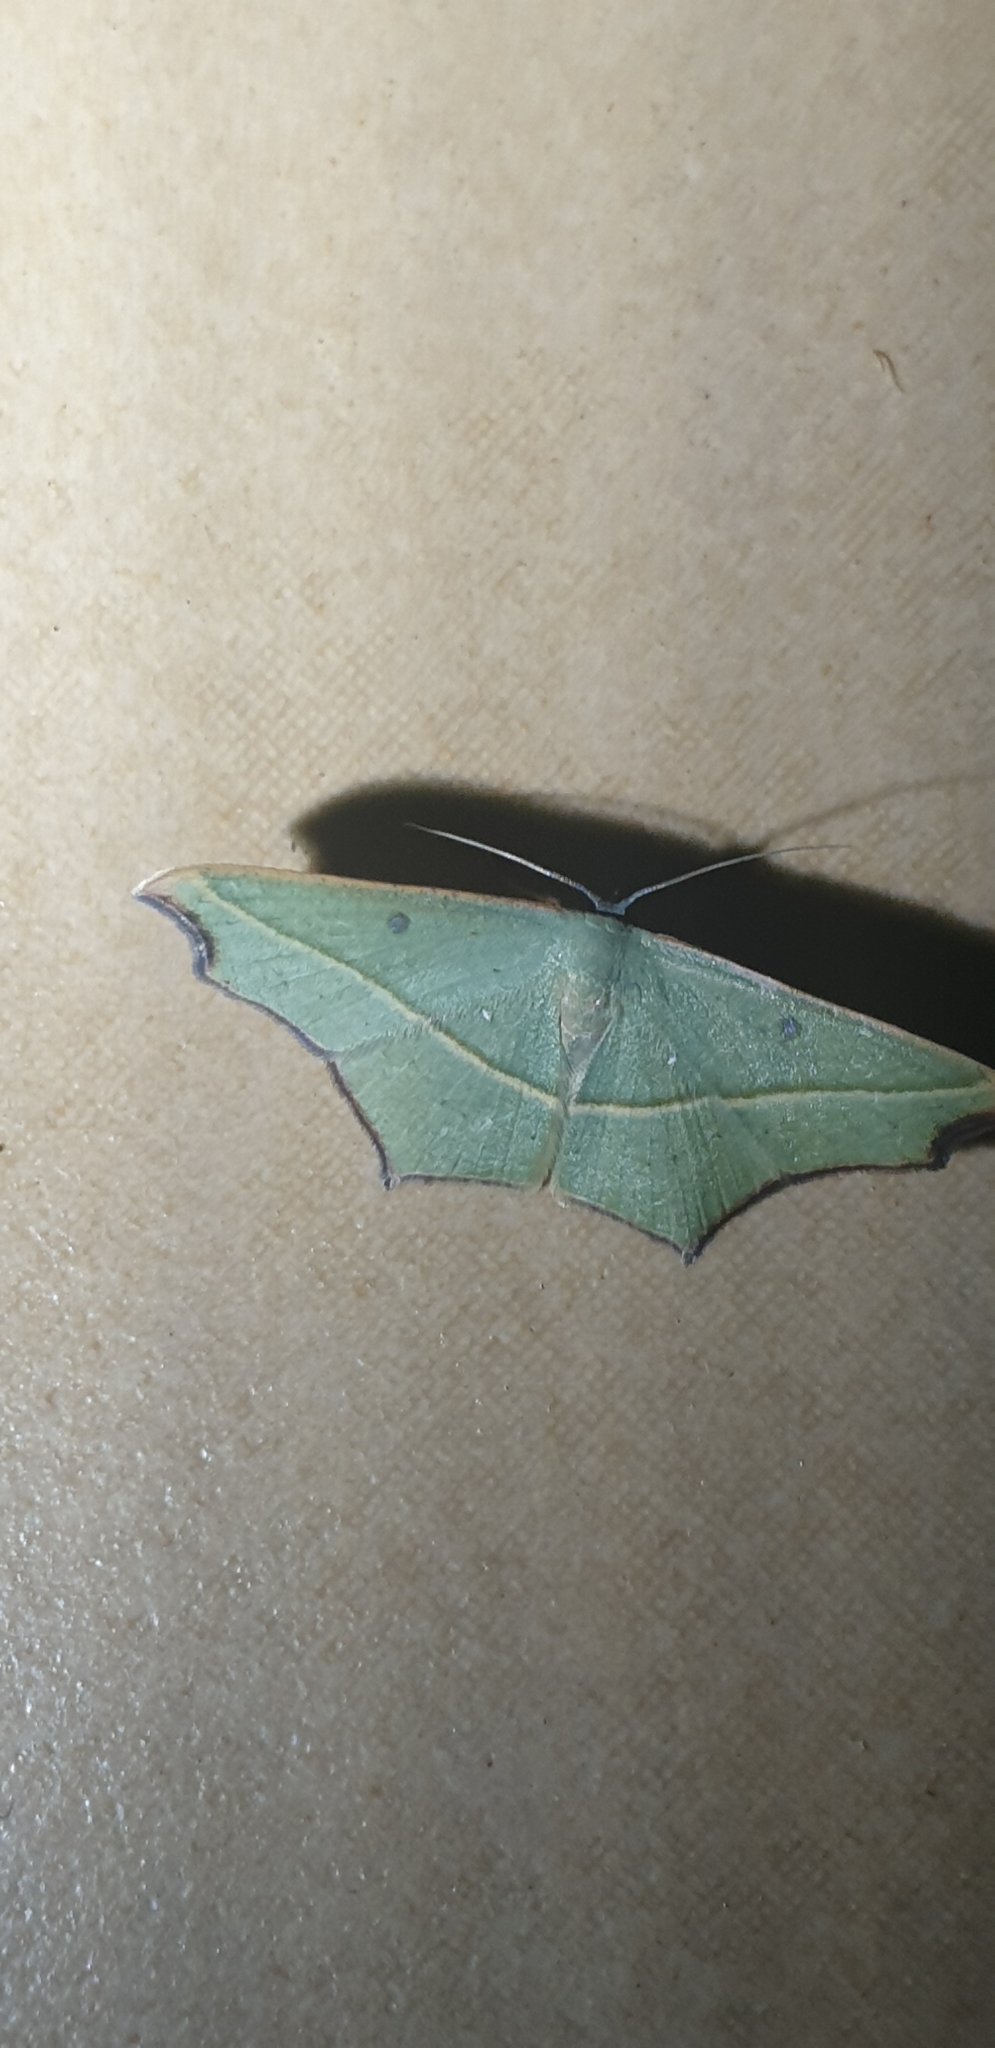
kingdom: Animalia
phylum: Arthropoda
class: Insecta
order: Lepidoptera
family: Geometridae
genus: Traminda
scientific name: Traminda aventiaria
